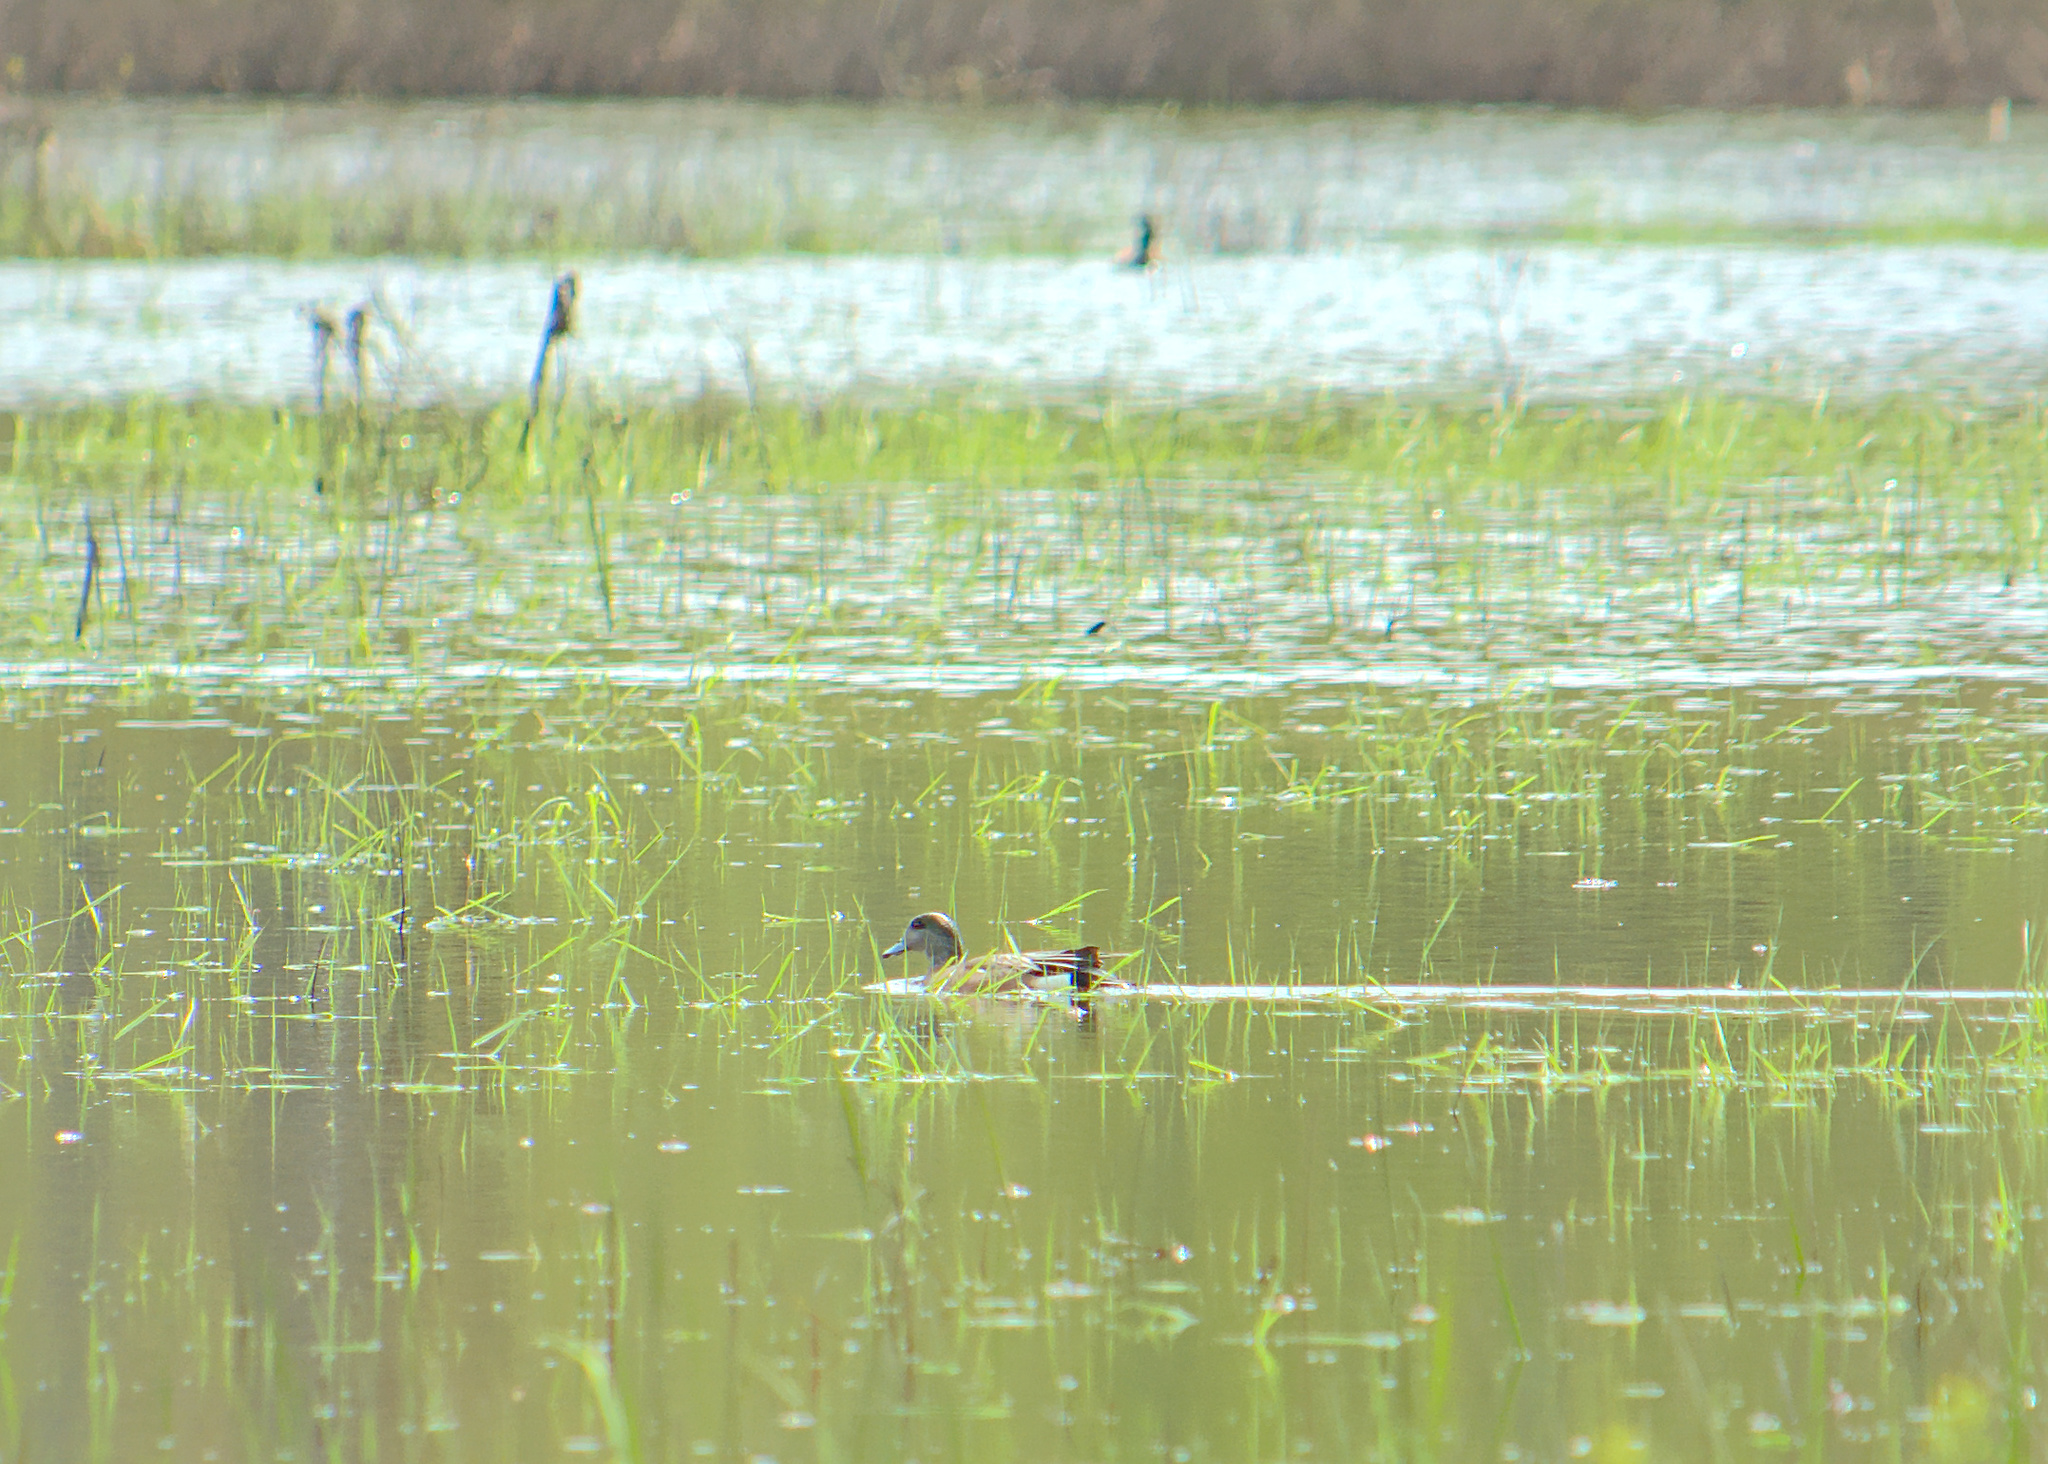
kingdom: Animalia
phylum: Chordata
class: Aves
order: Anseriformes
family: Anatidae
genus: Mareca
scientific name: Mareca americana
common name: American wigeon
